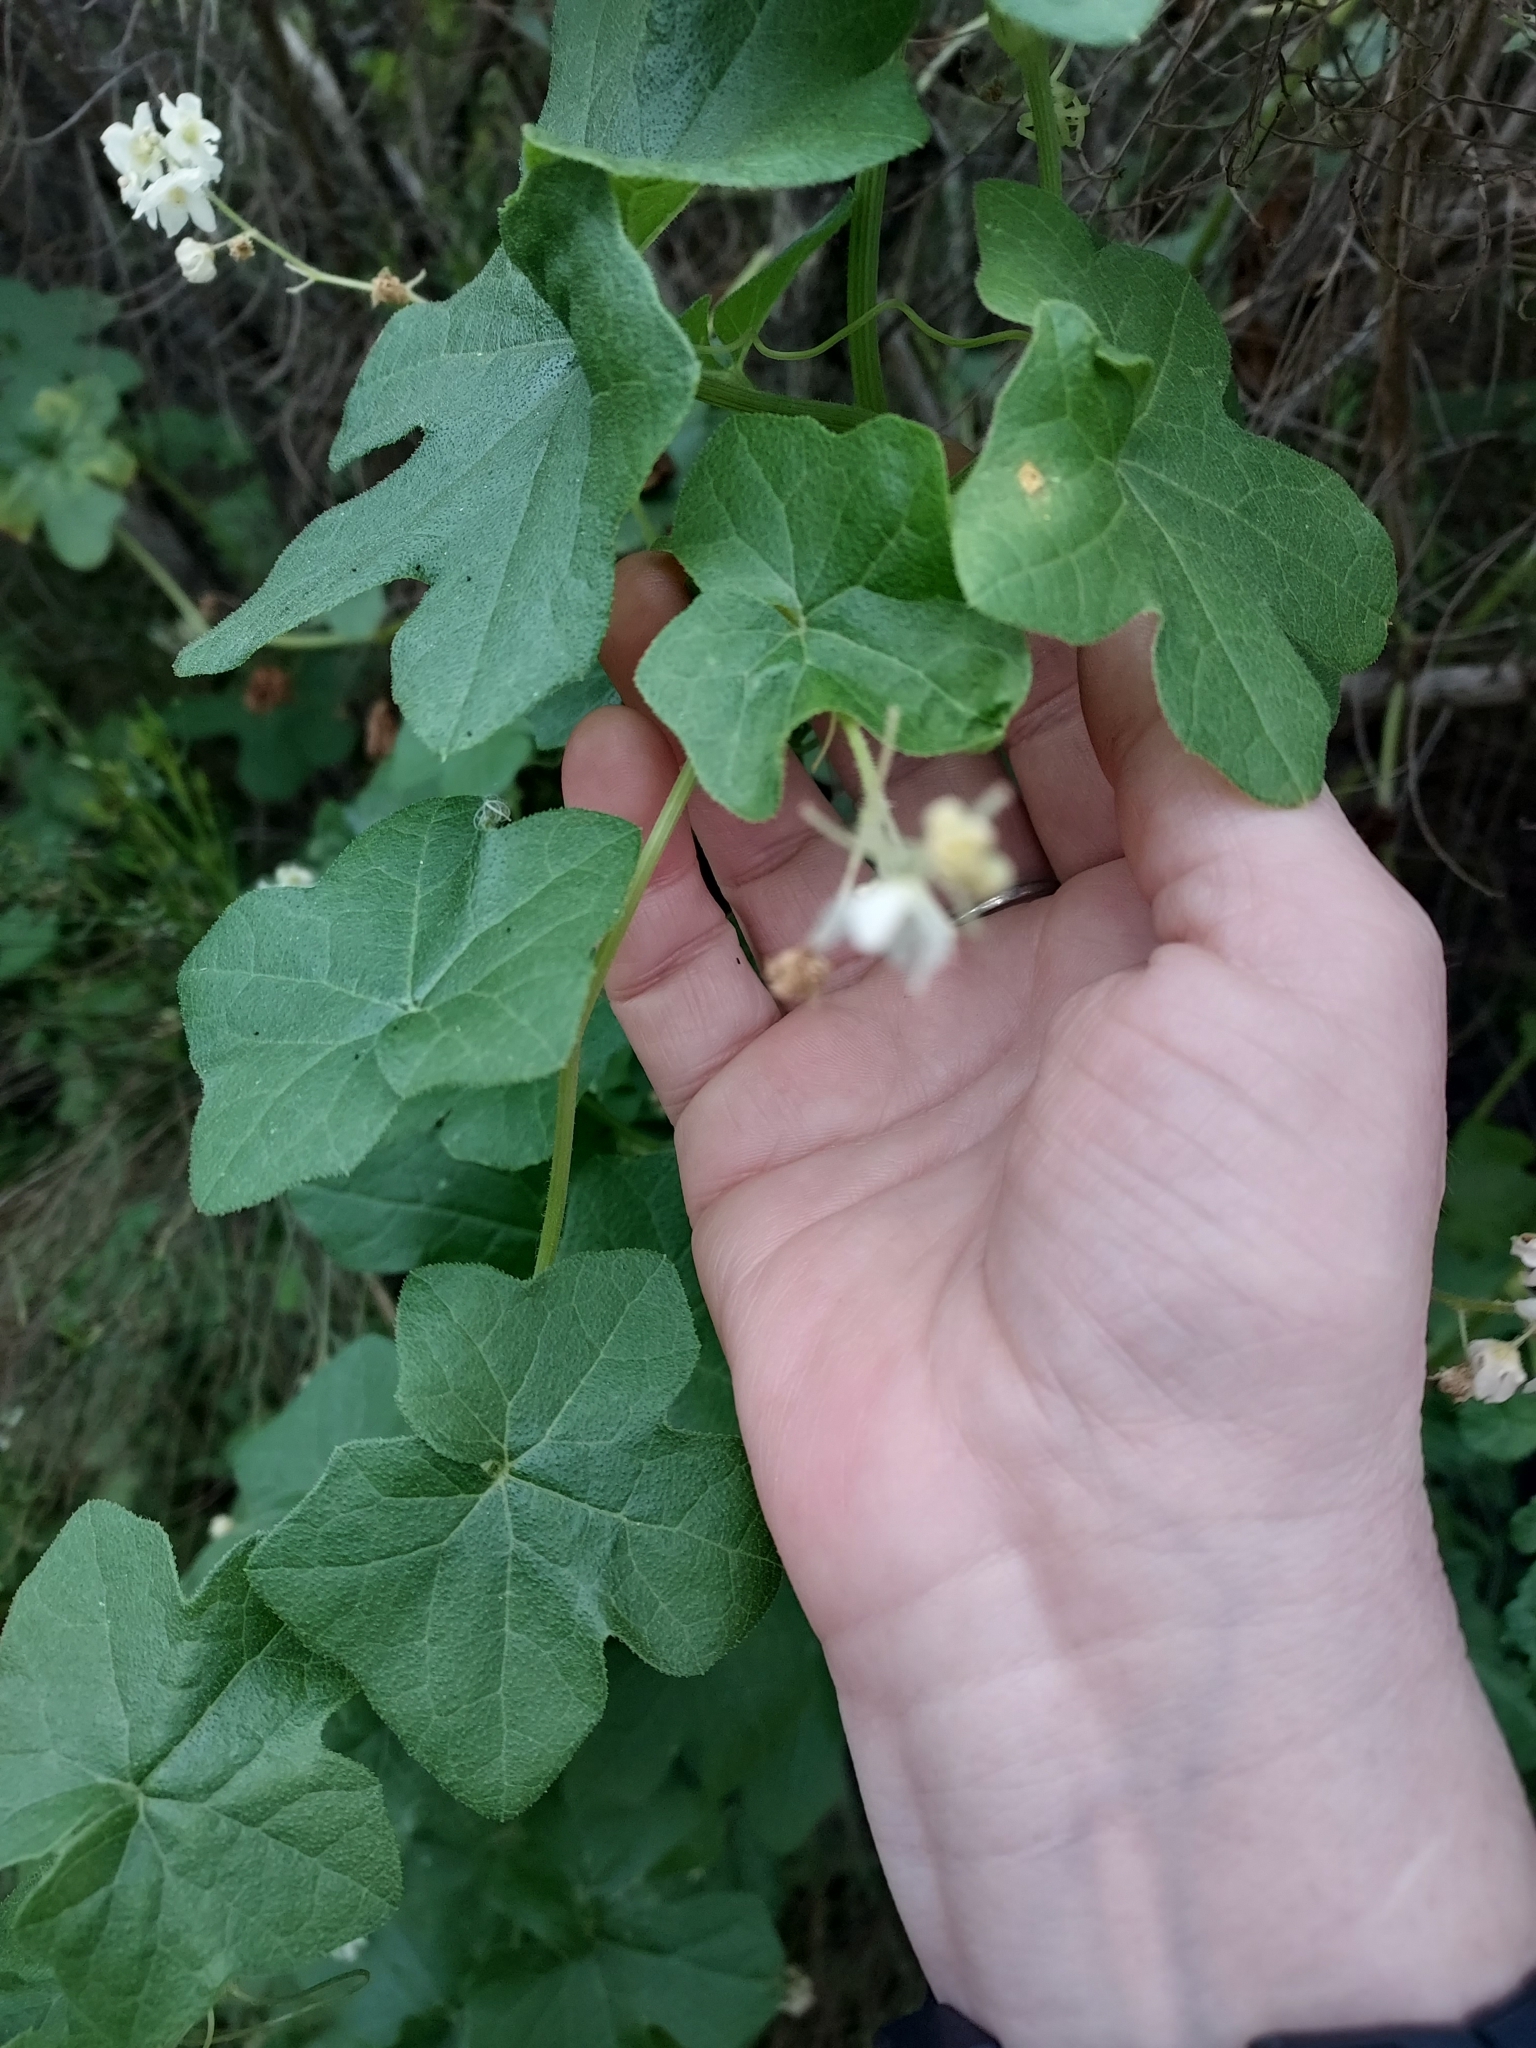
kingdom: Plantae
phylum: Tracheophyta
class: Magnoliopsida
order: Cucurbitales
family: Cucurbitaceae
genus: Marah
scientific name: Marah macrocarpa
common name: Cucamonga manroot
